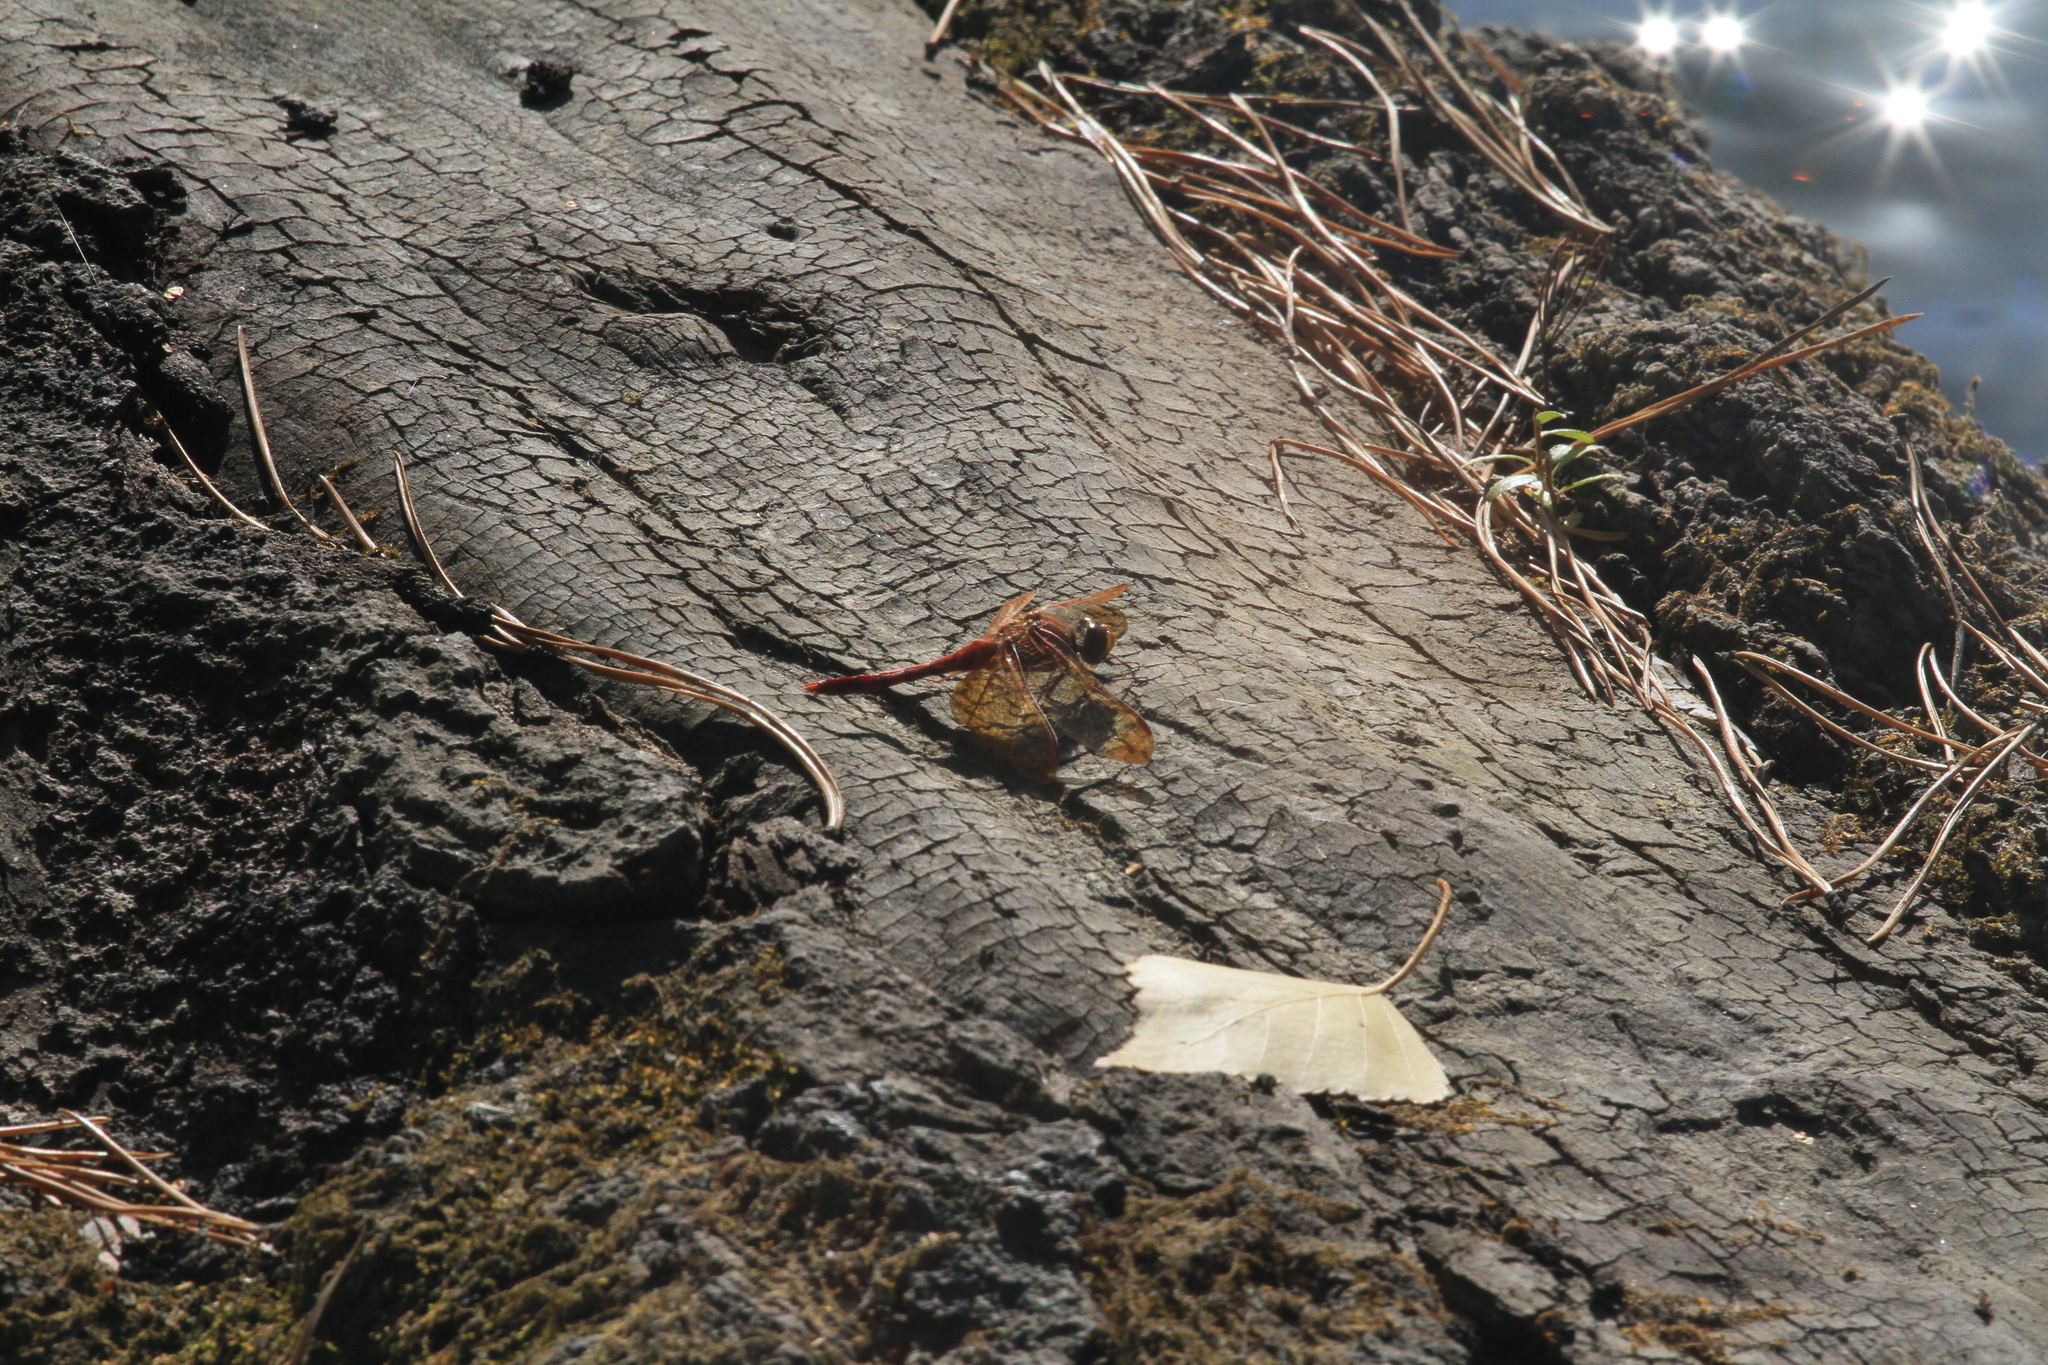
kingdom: Animalia
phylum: Arthropoda
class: Insecta
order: Odonata
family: Libellulidae
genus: Sympetrum
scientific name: Sympetrum croceolum
